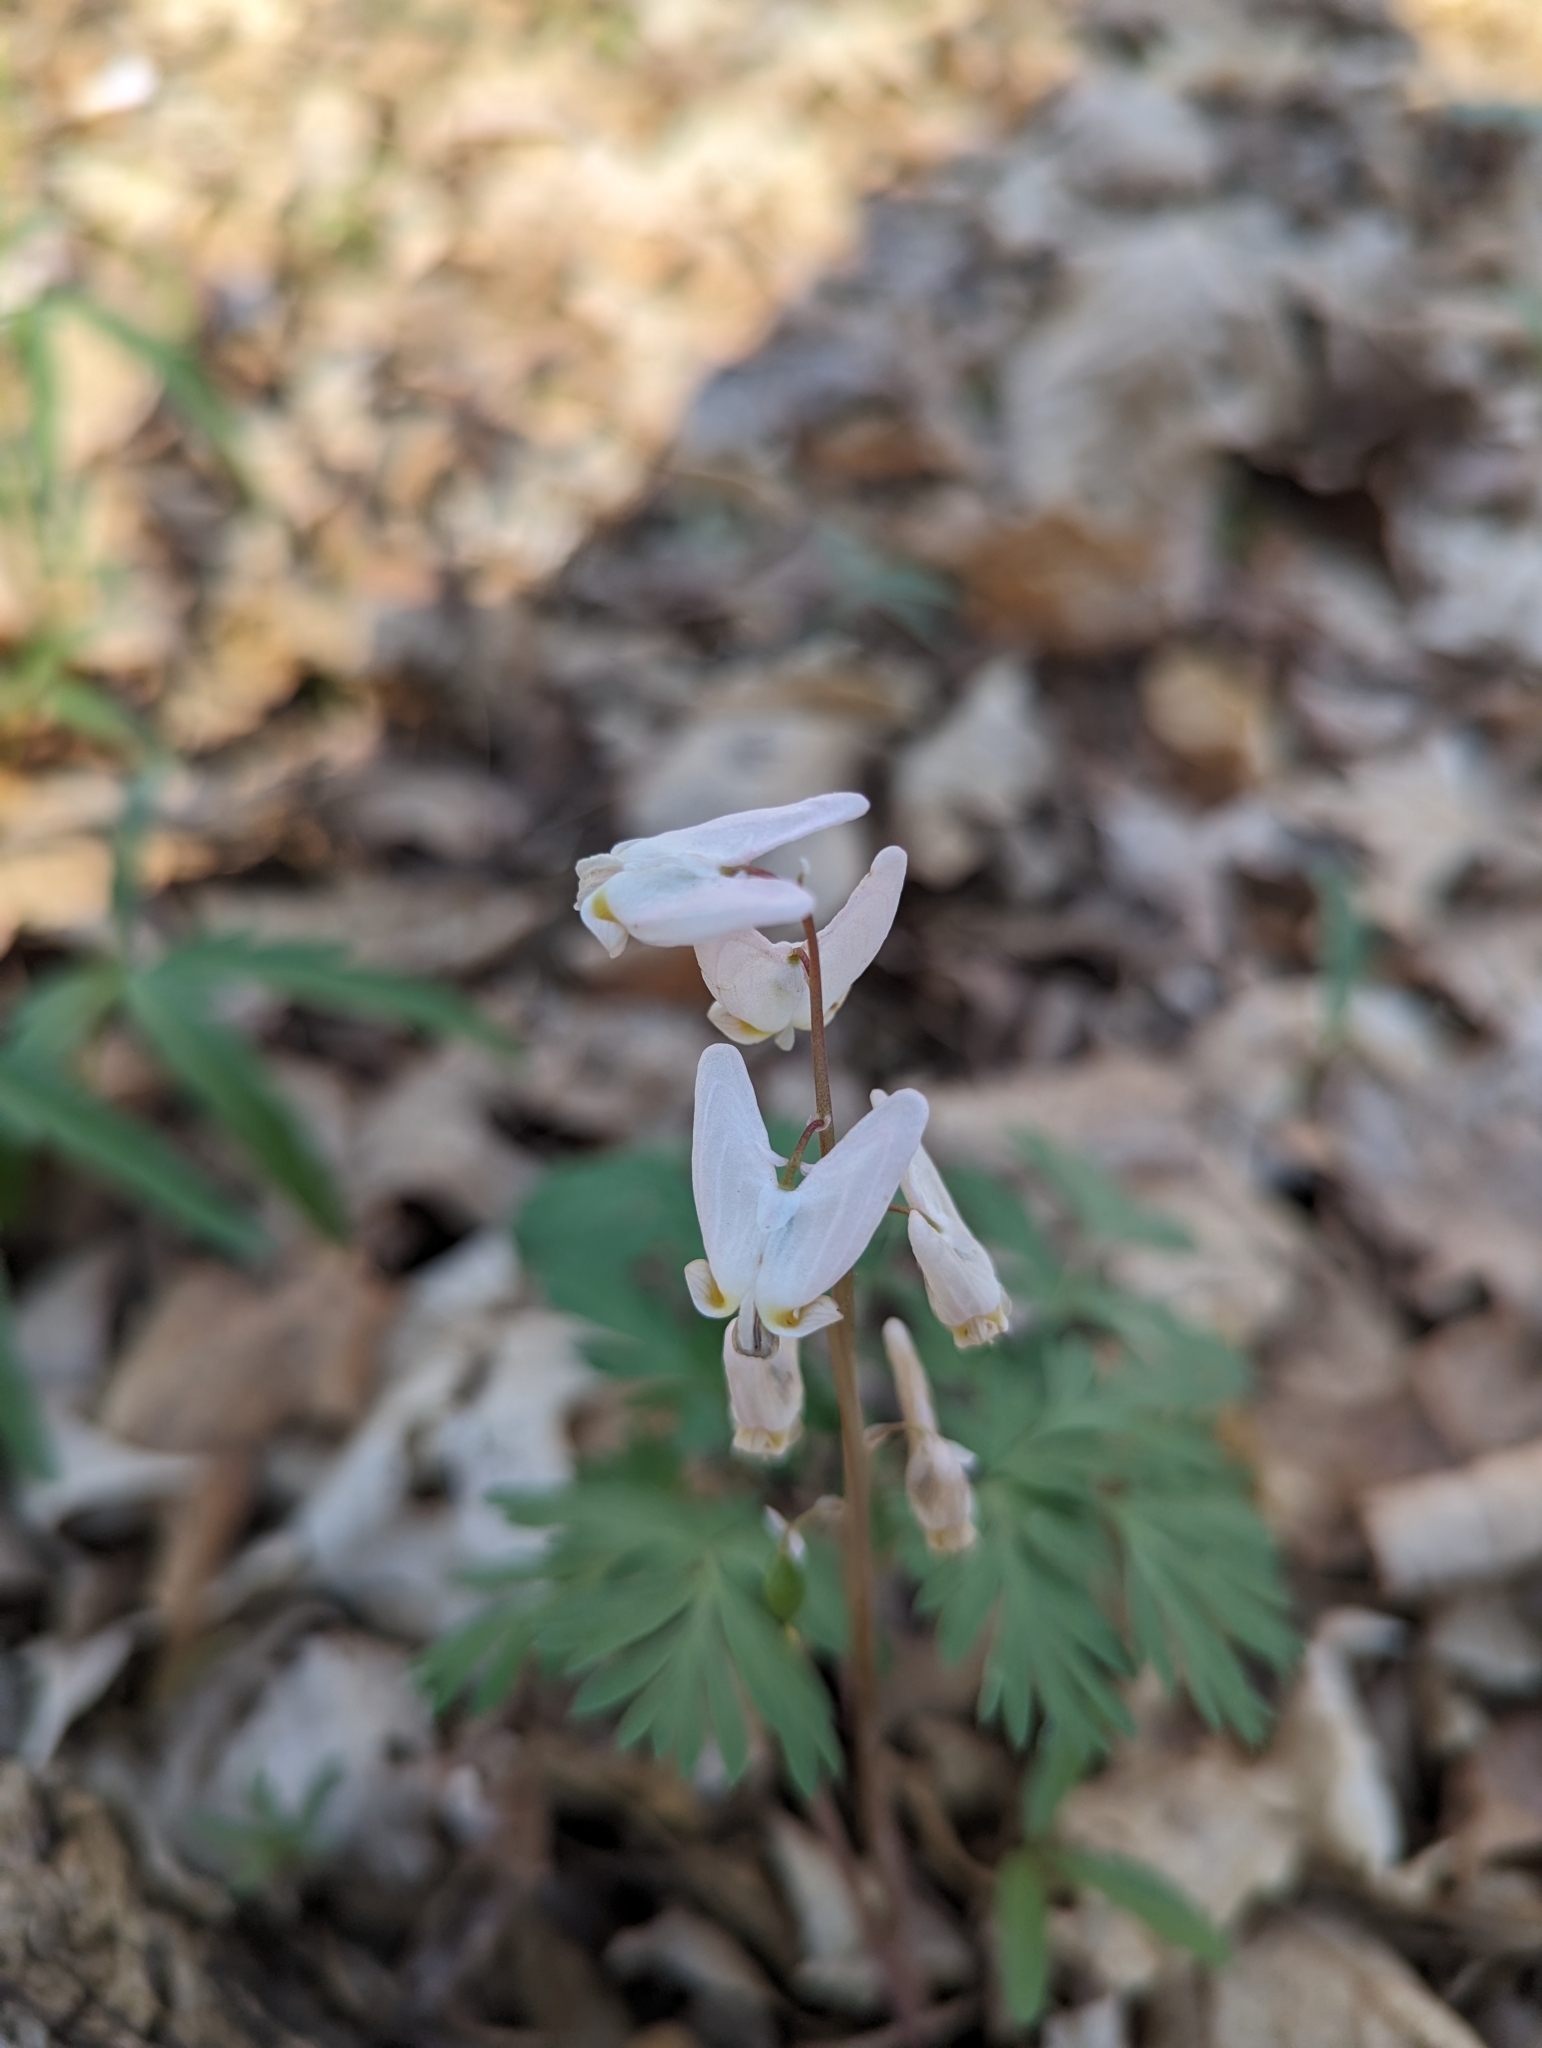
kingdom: Plantae
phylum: Tracheophyta
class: Magnoliopsida
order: Ranunculales
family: Papaveraceae
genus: Dicentra
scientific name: Dicentra cucullaria
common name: Dutchman's breeches
